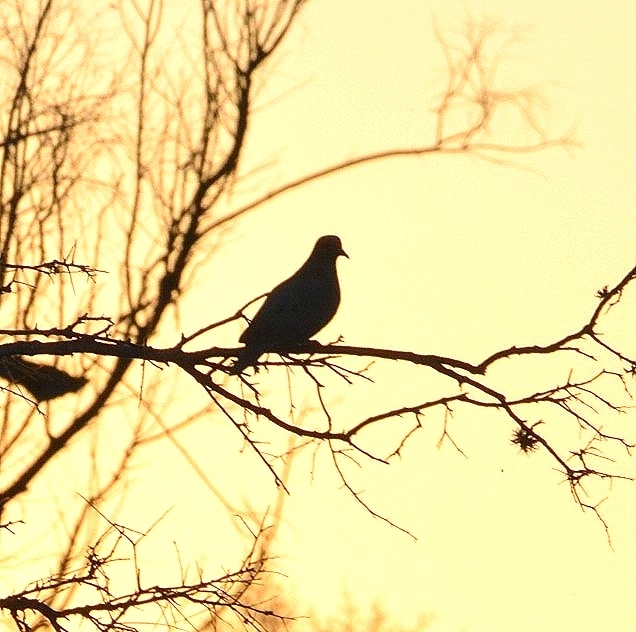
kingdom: Animalia
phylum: Chordata
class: Aves
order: Columbiformes
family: Columbidae
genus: Zenaida
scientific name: Zenaida auriculata
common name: Eared dove
